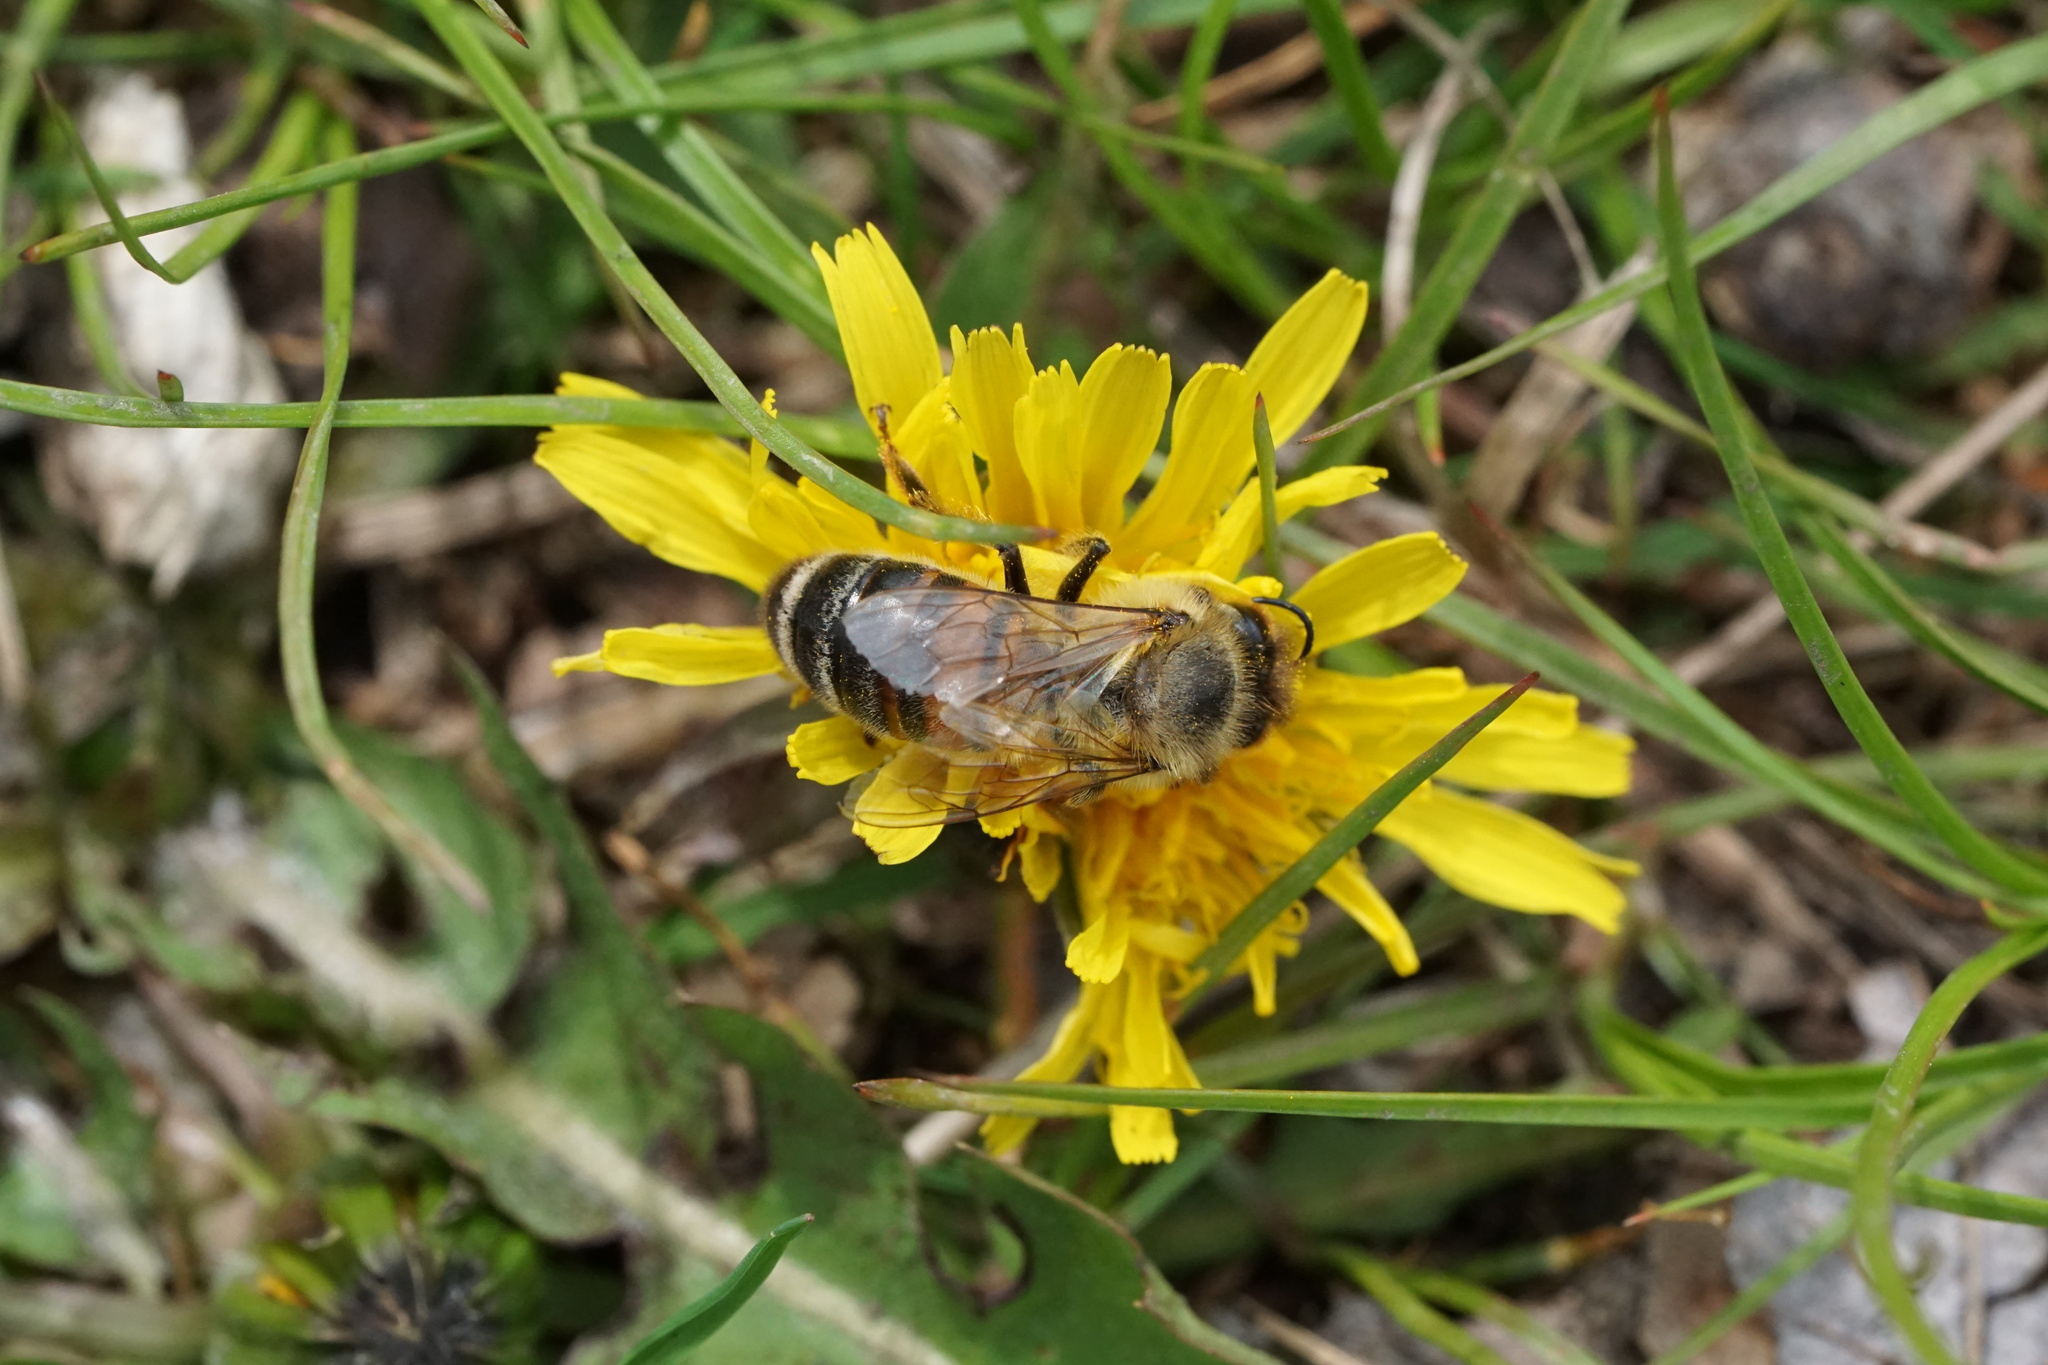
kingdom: Animalia
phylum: Arthropoda
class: Insecta
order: Hymenoptera
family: Apidae
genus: Apis
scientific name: Apis mellifera
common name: Honey bee
